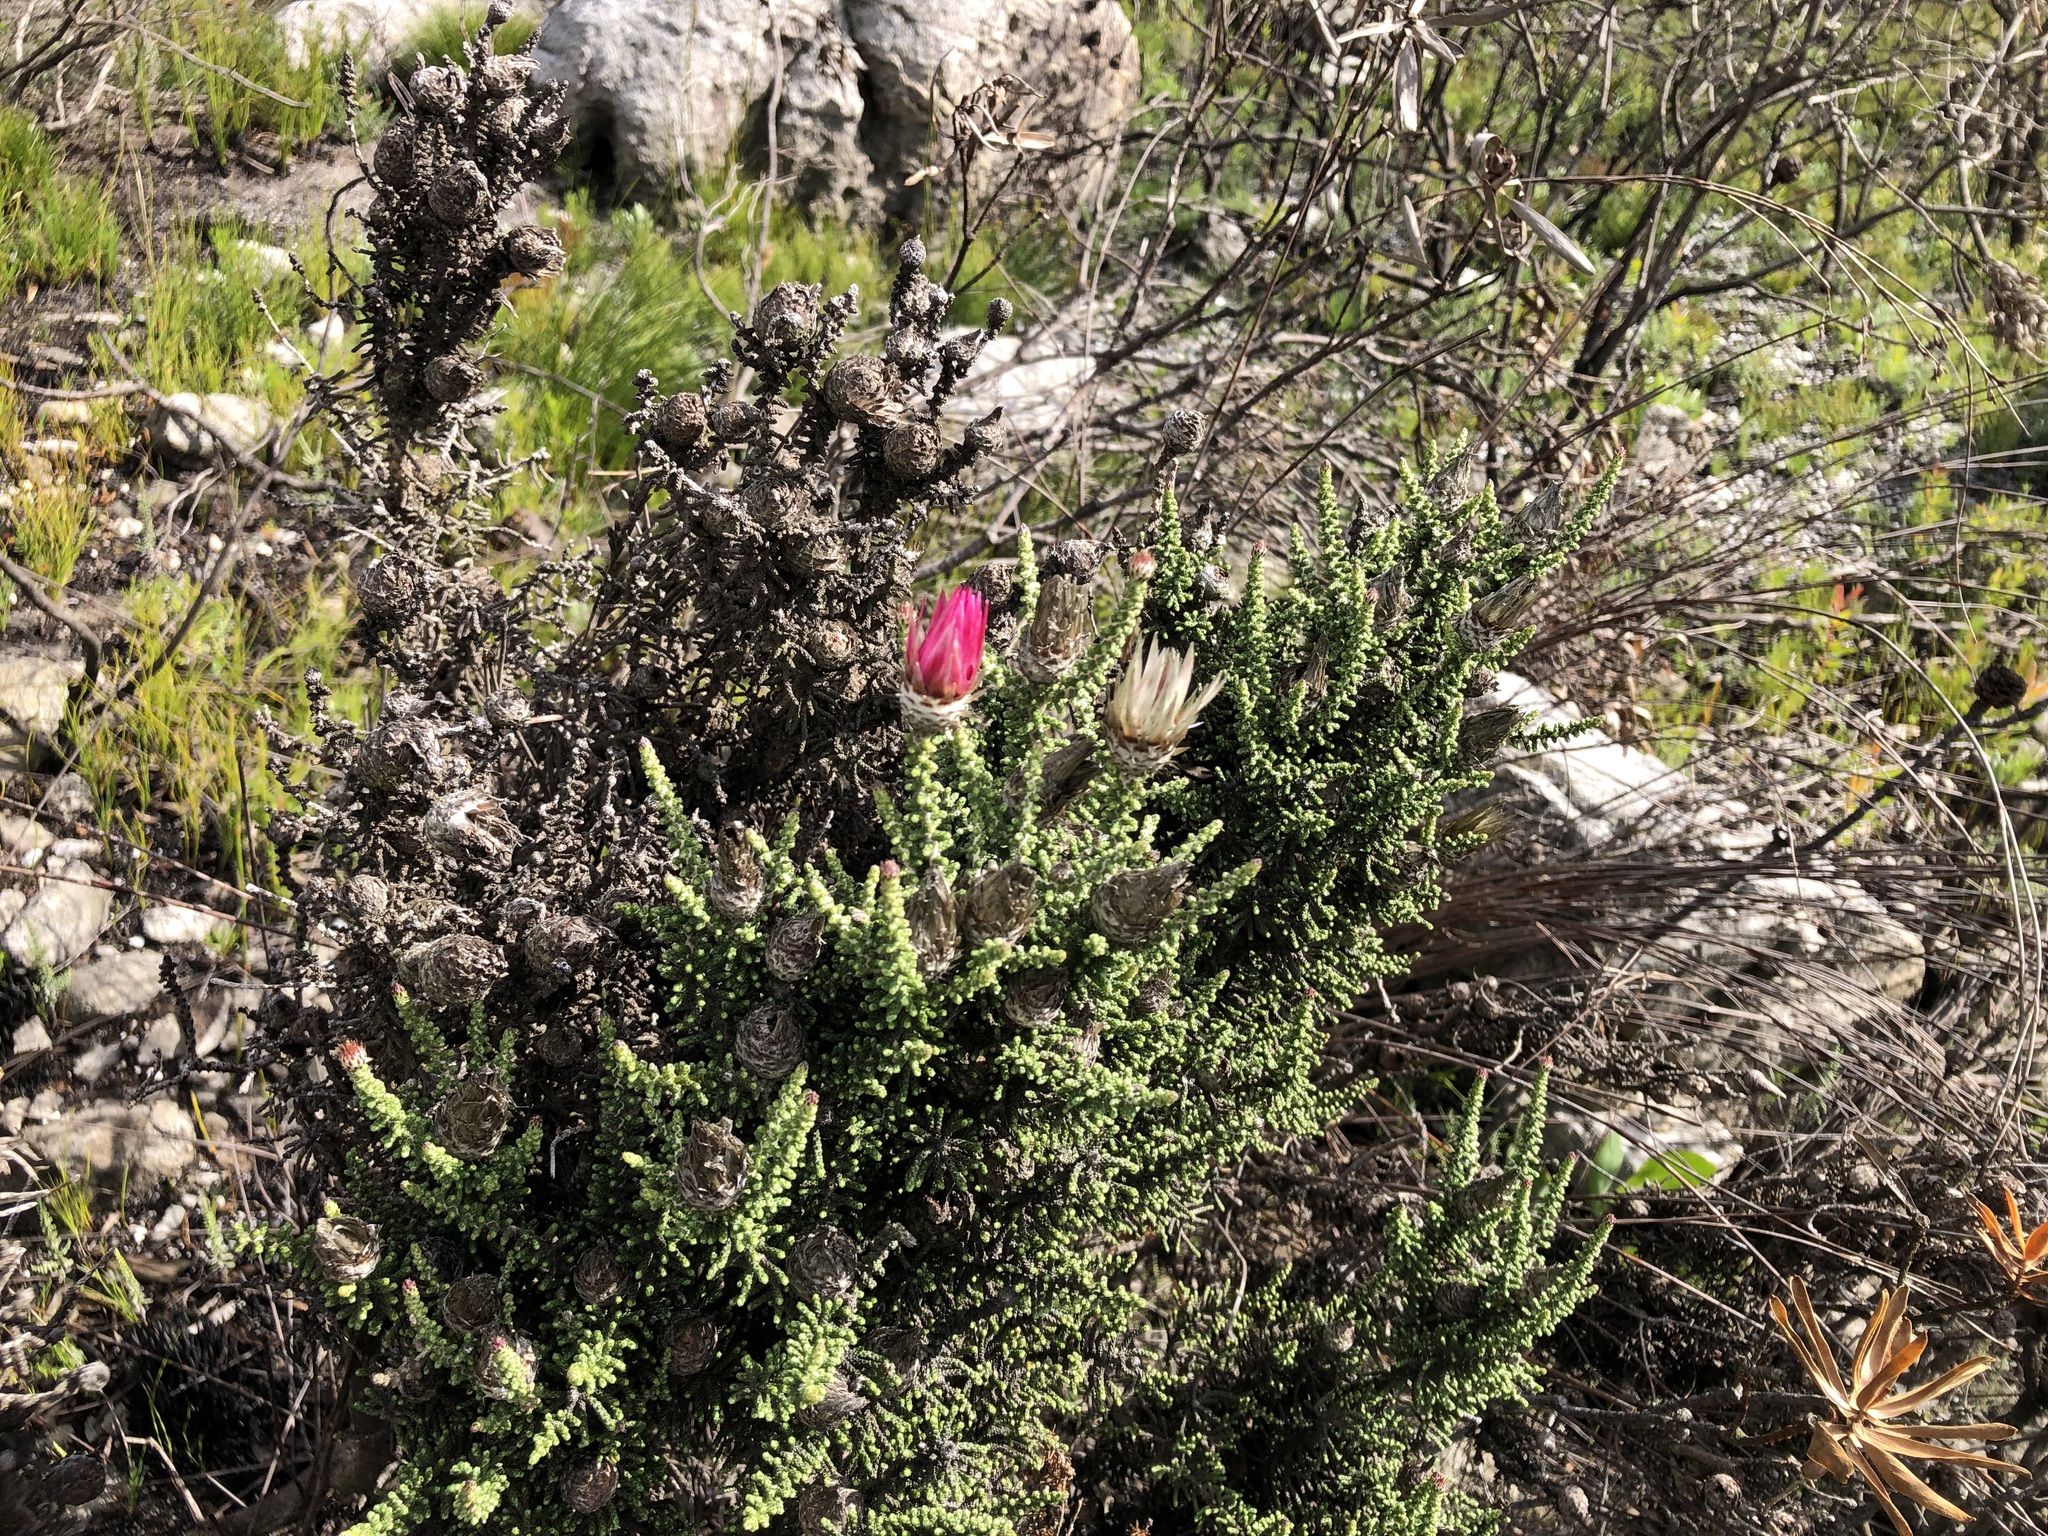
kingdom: Plantae
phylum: Tracheophyta
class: Magnoliopsida
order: Asterales
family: Asteraceae
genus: Phaenocoma
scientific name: Phaenocoma prolifera
